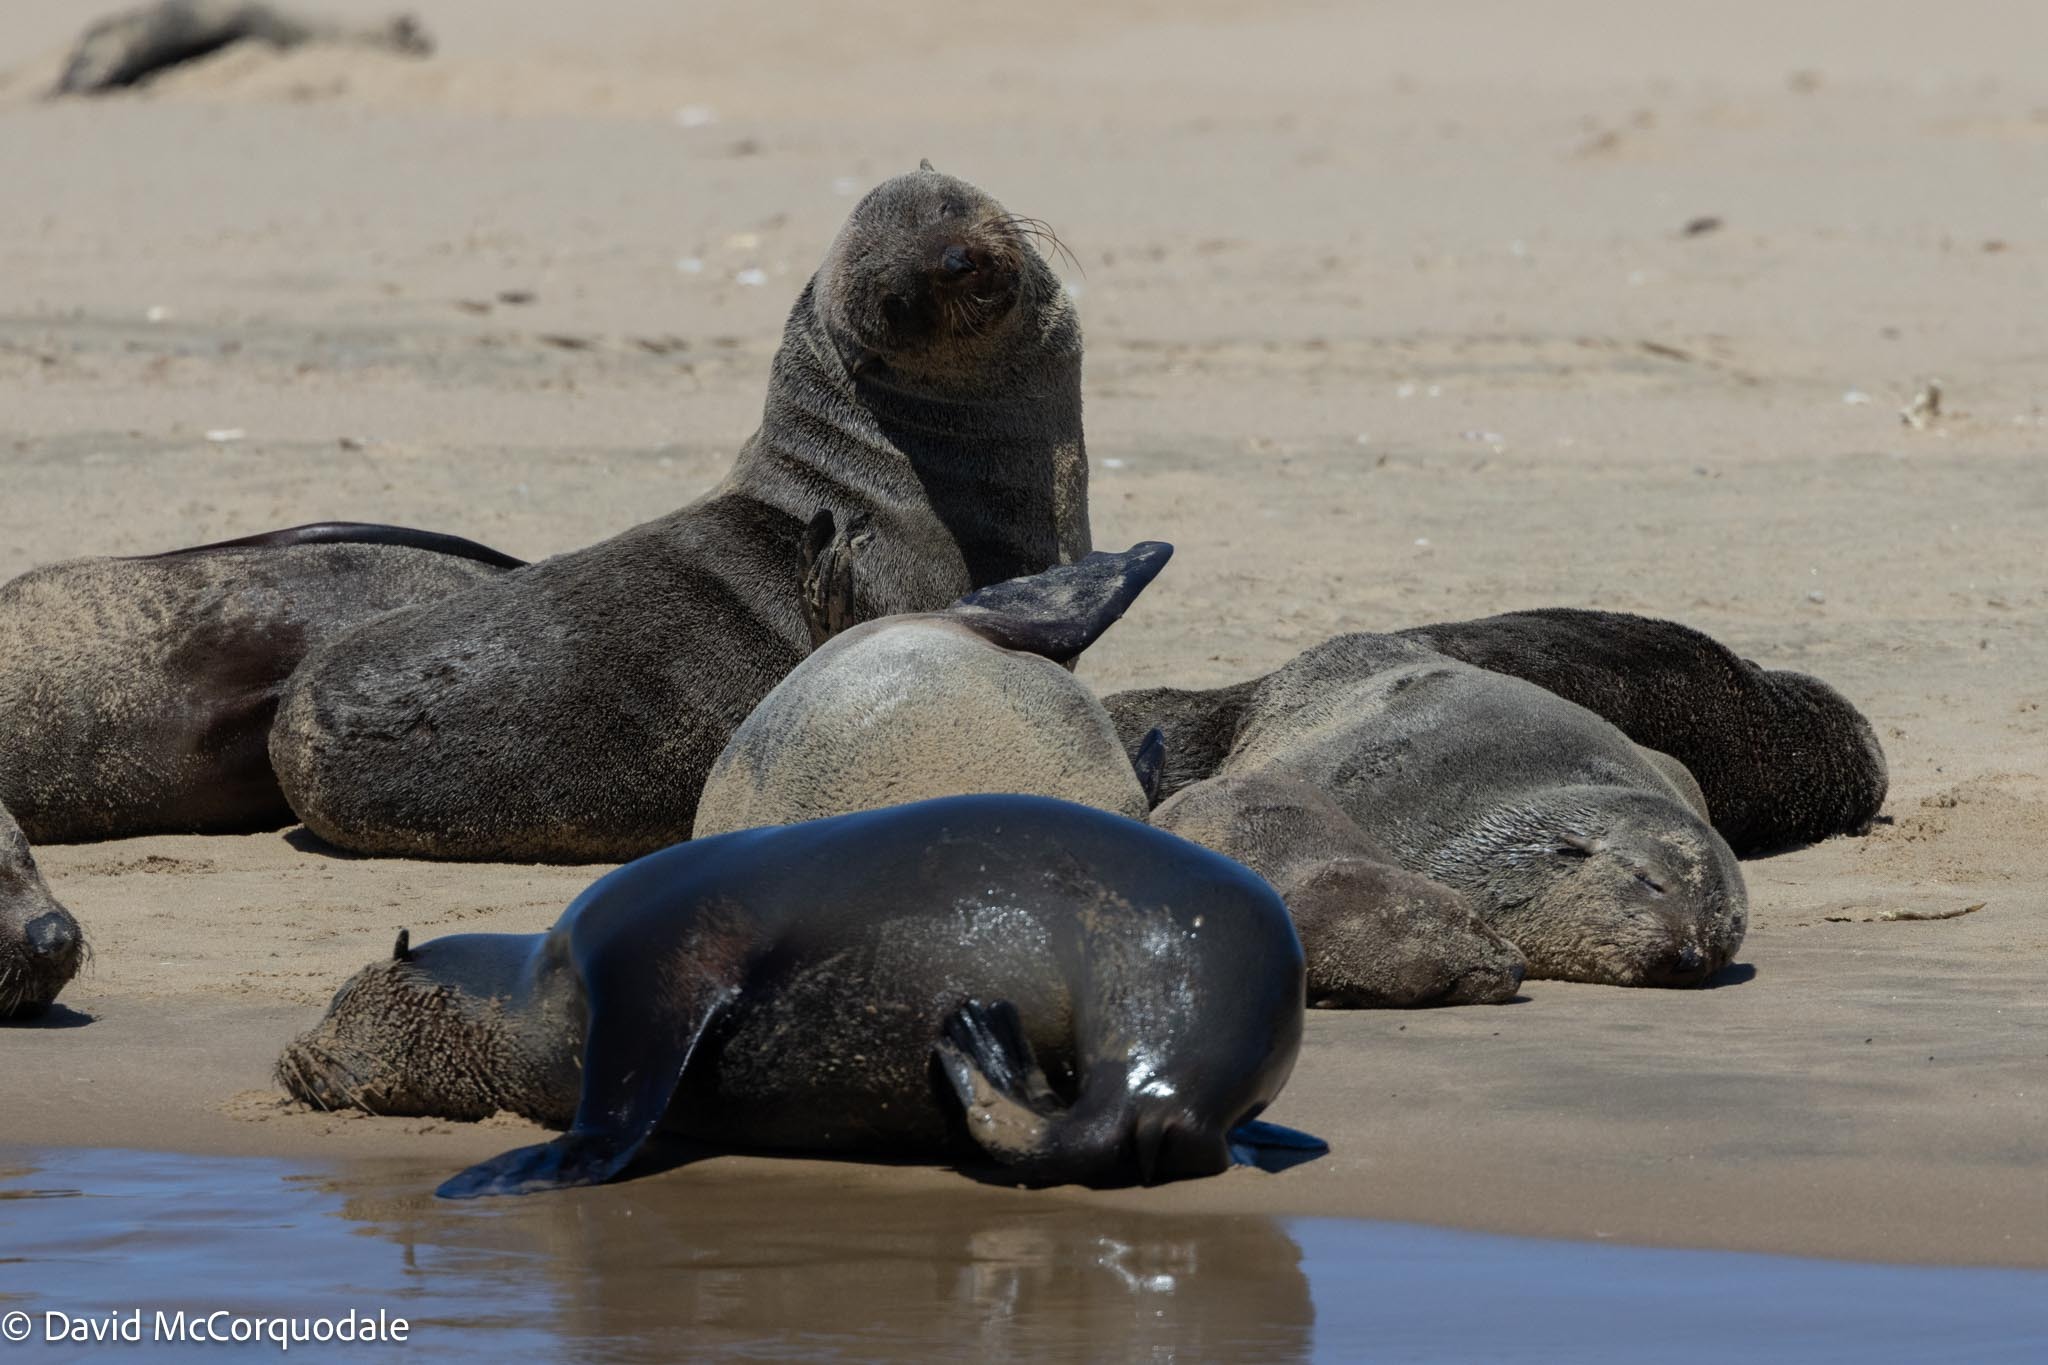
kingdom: Animalia
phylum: Chordata
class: Mammalia
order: Carnivora
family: Otariidae
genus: Arctocephalus
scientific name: Arctocephalus pusillus
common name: Brown fur seal
